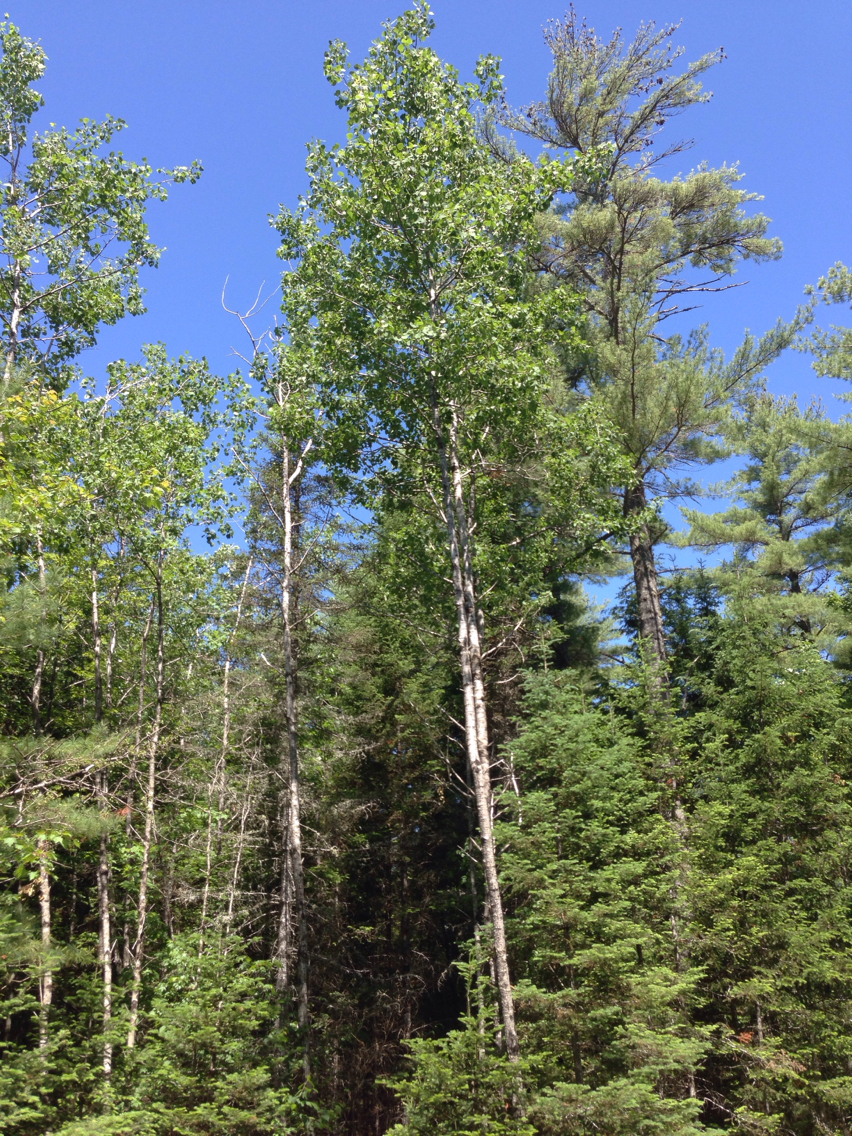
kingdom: Plantae
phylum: Tracheophyta
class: Magnoliopsida
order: Malpighiales
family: Salicaceae
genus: Populus
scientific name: Populus tremuloides
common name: Quaking aspen
